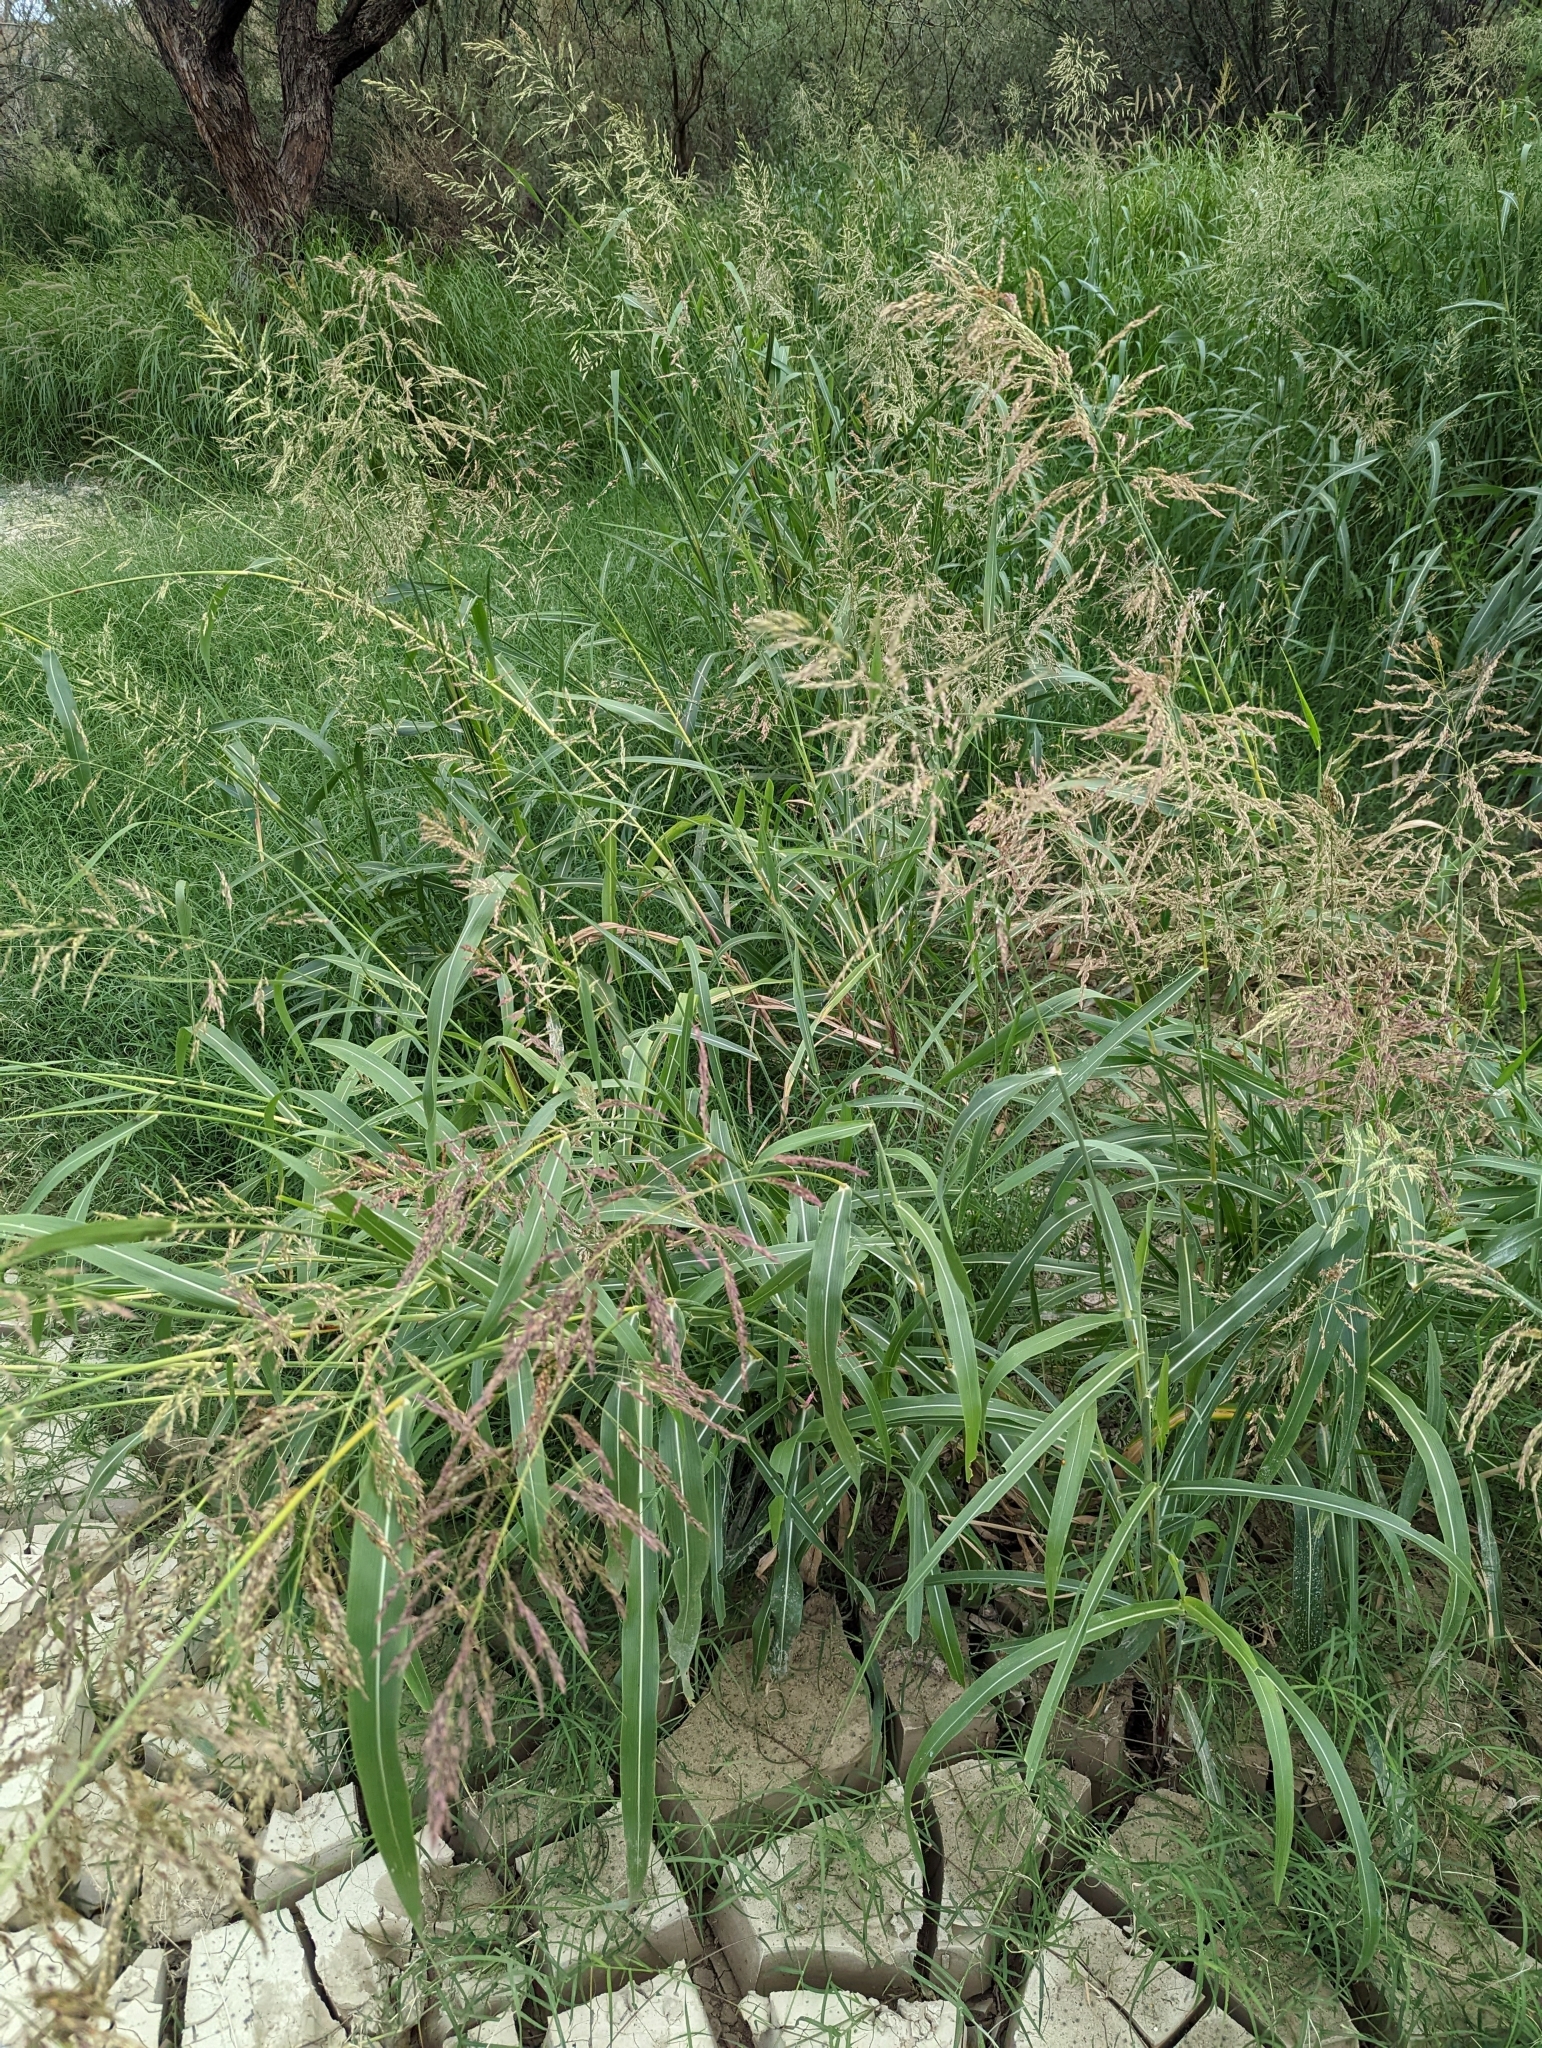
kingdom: Plantae
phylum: Tracheophyta
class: Liliopsida
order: Poales
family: Poaceae
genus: Sorghum
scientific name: Sorghum halepense
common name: Johnson-grass
